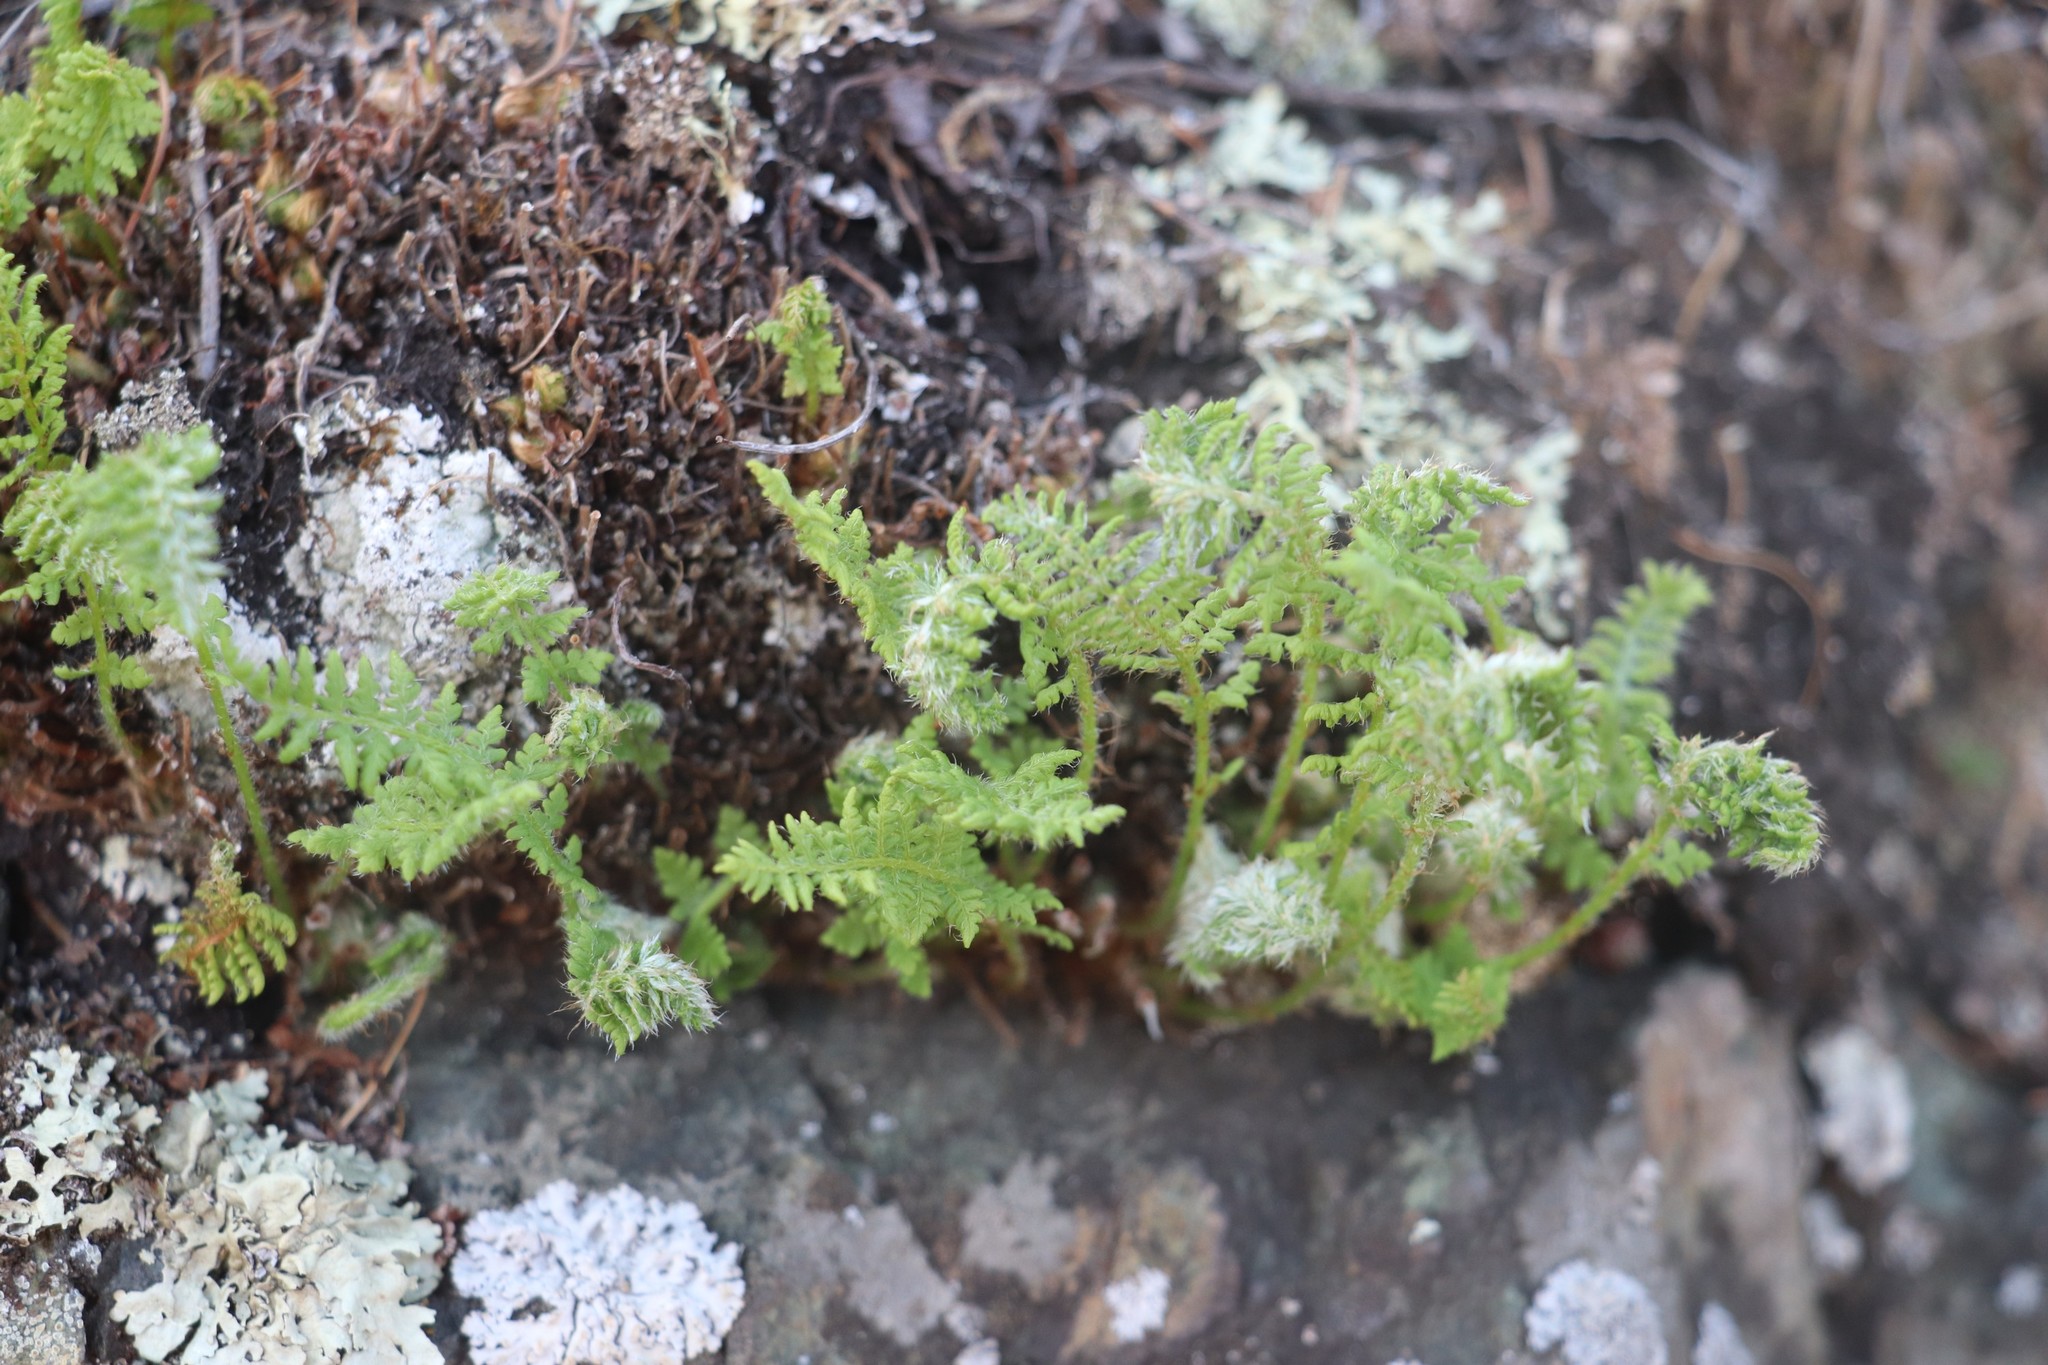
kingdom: Plantae
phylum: Tracheophyta
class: Polypodiopsida
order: Polypodiales
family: Woodsiaceae
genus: Woodsia
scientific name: Woodsia ilvensis
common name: Fragrant woodsia
